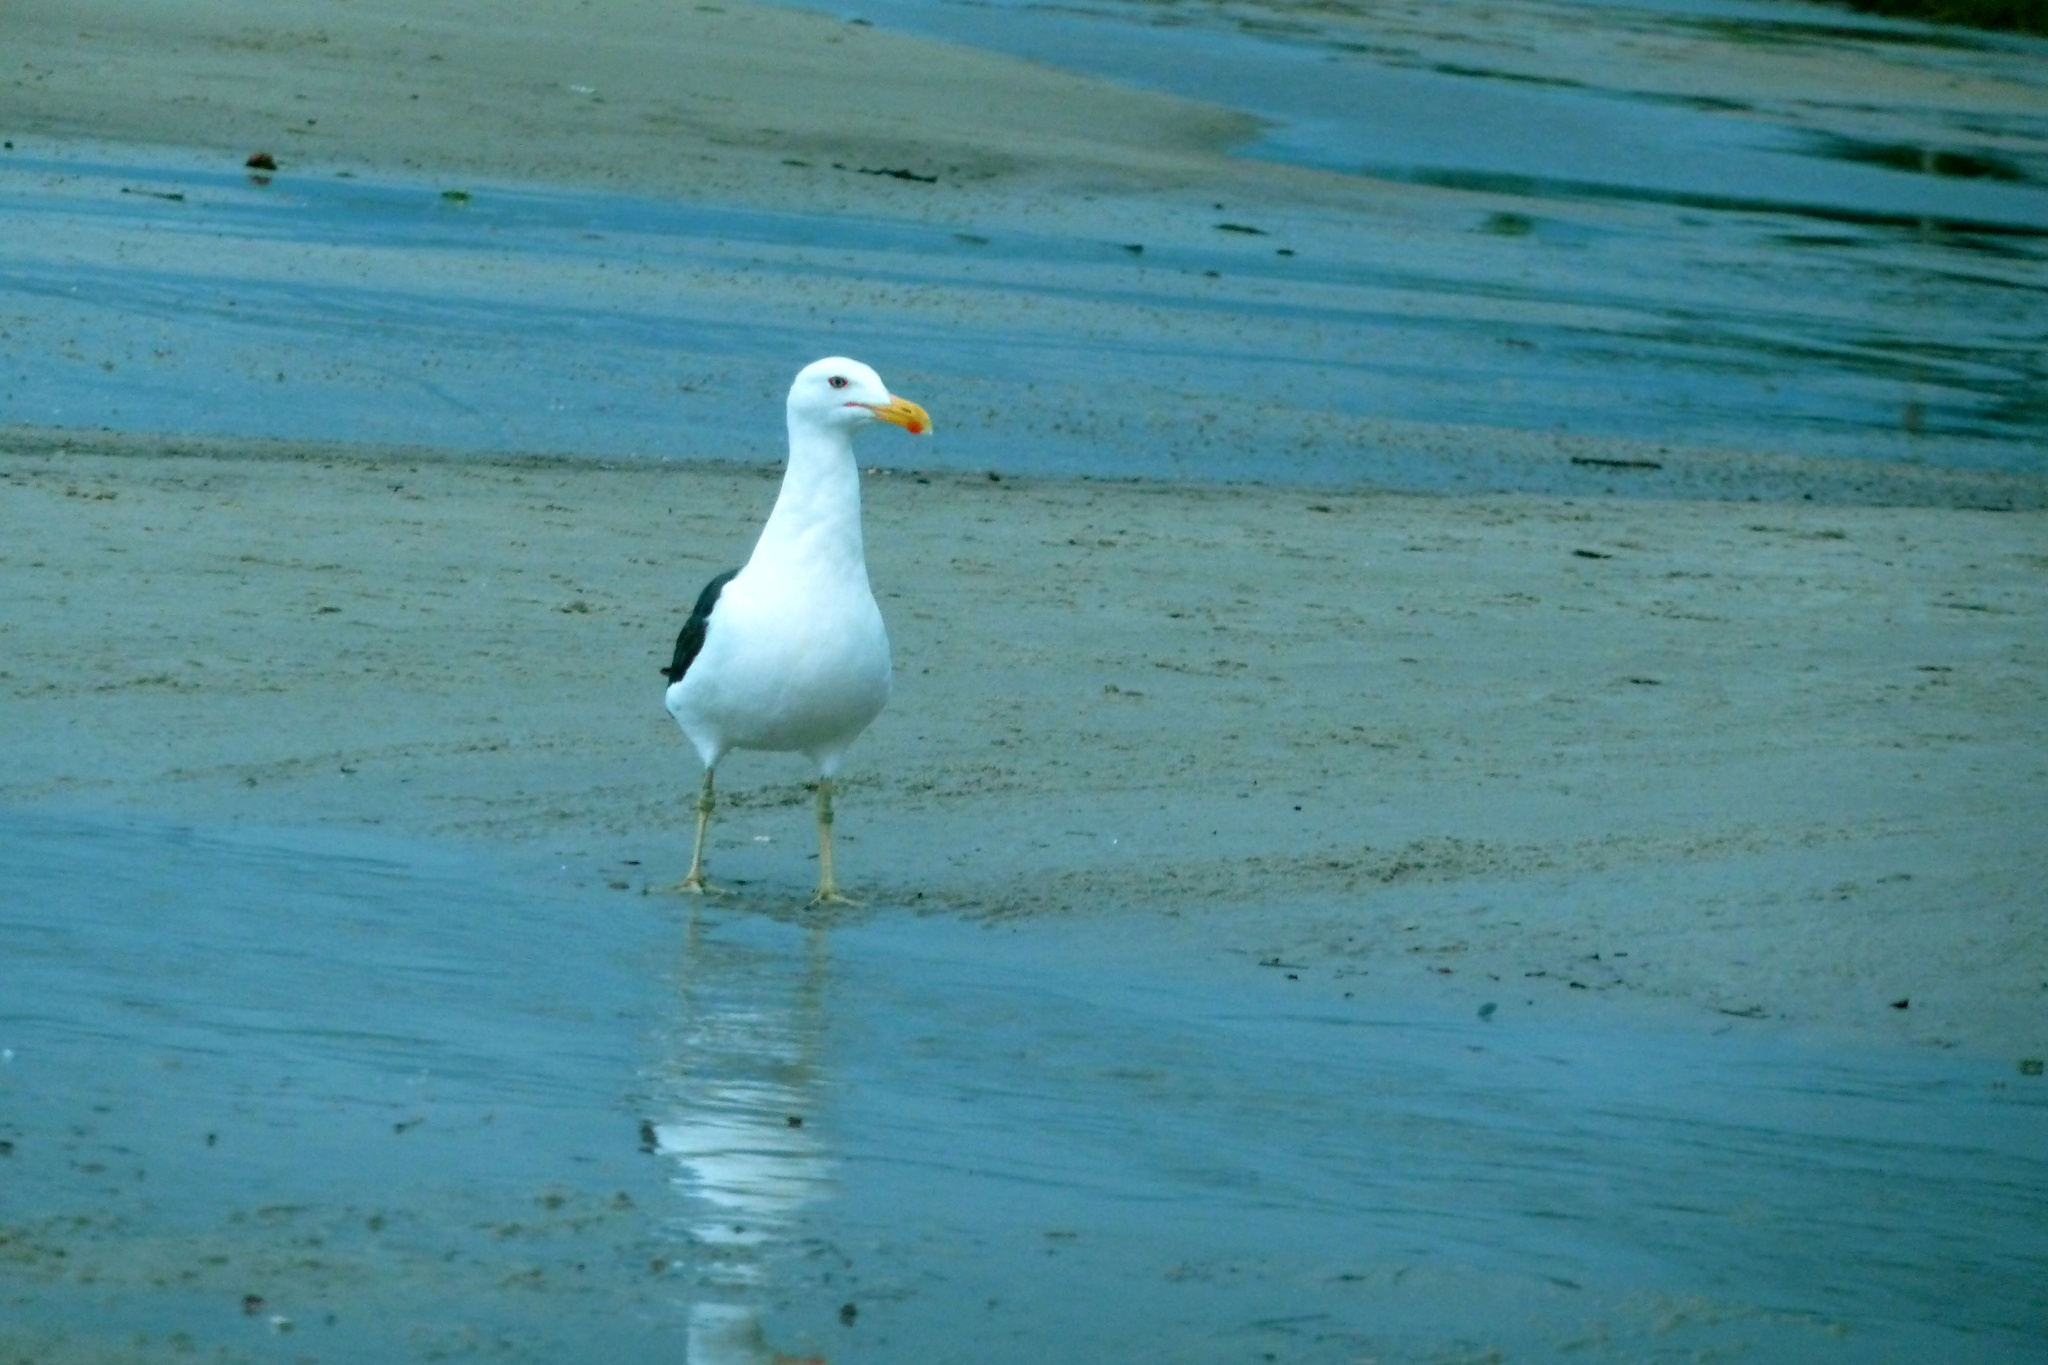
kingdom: Animalia
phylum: Chordata
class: Aves
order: Charadriiformes
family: Laridae
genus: Larus
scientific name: Larus dominicanus
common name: Kelp gull
